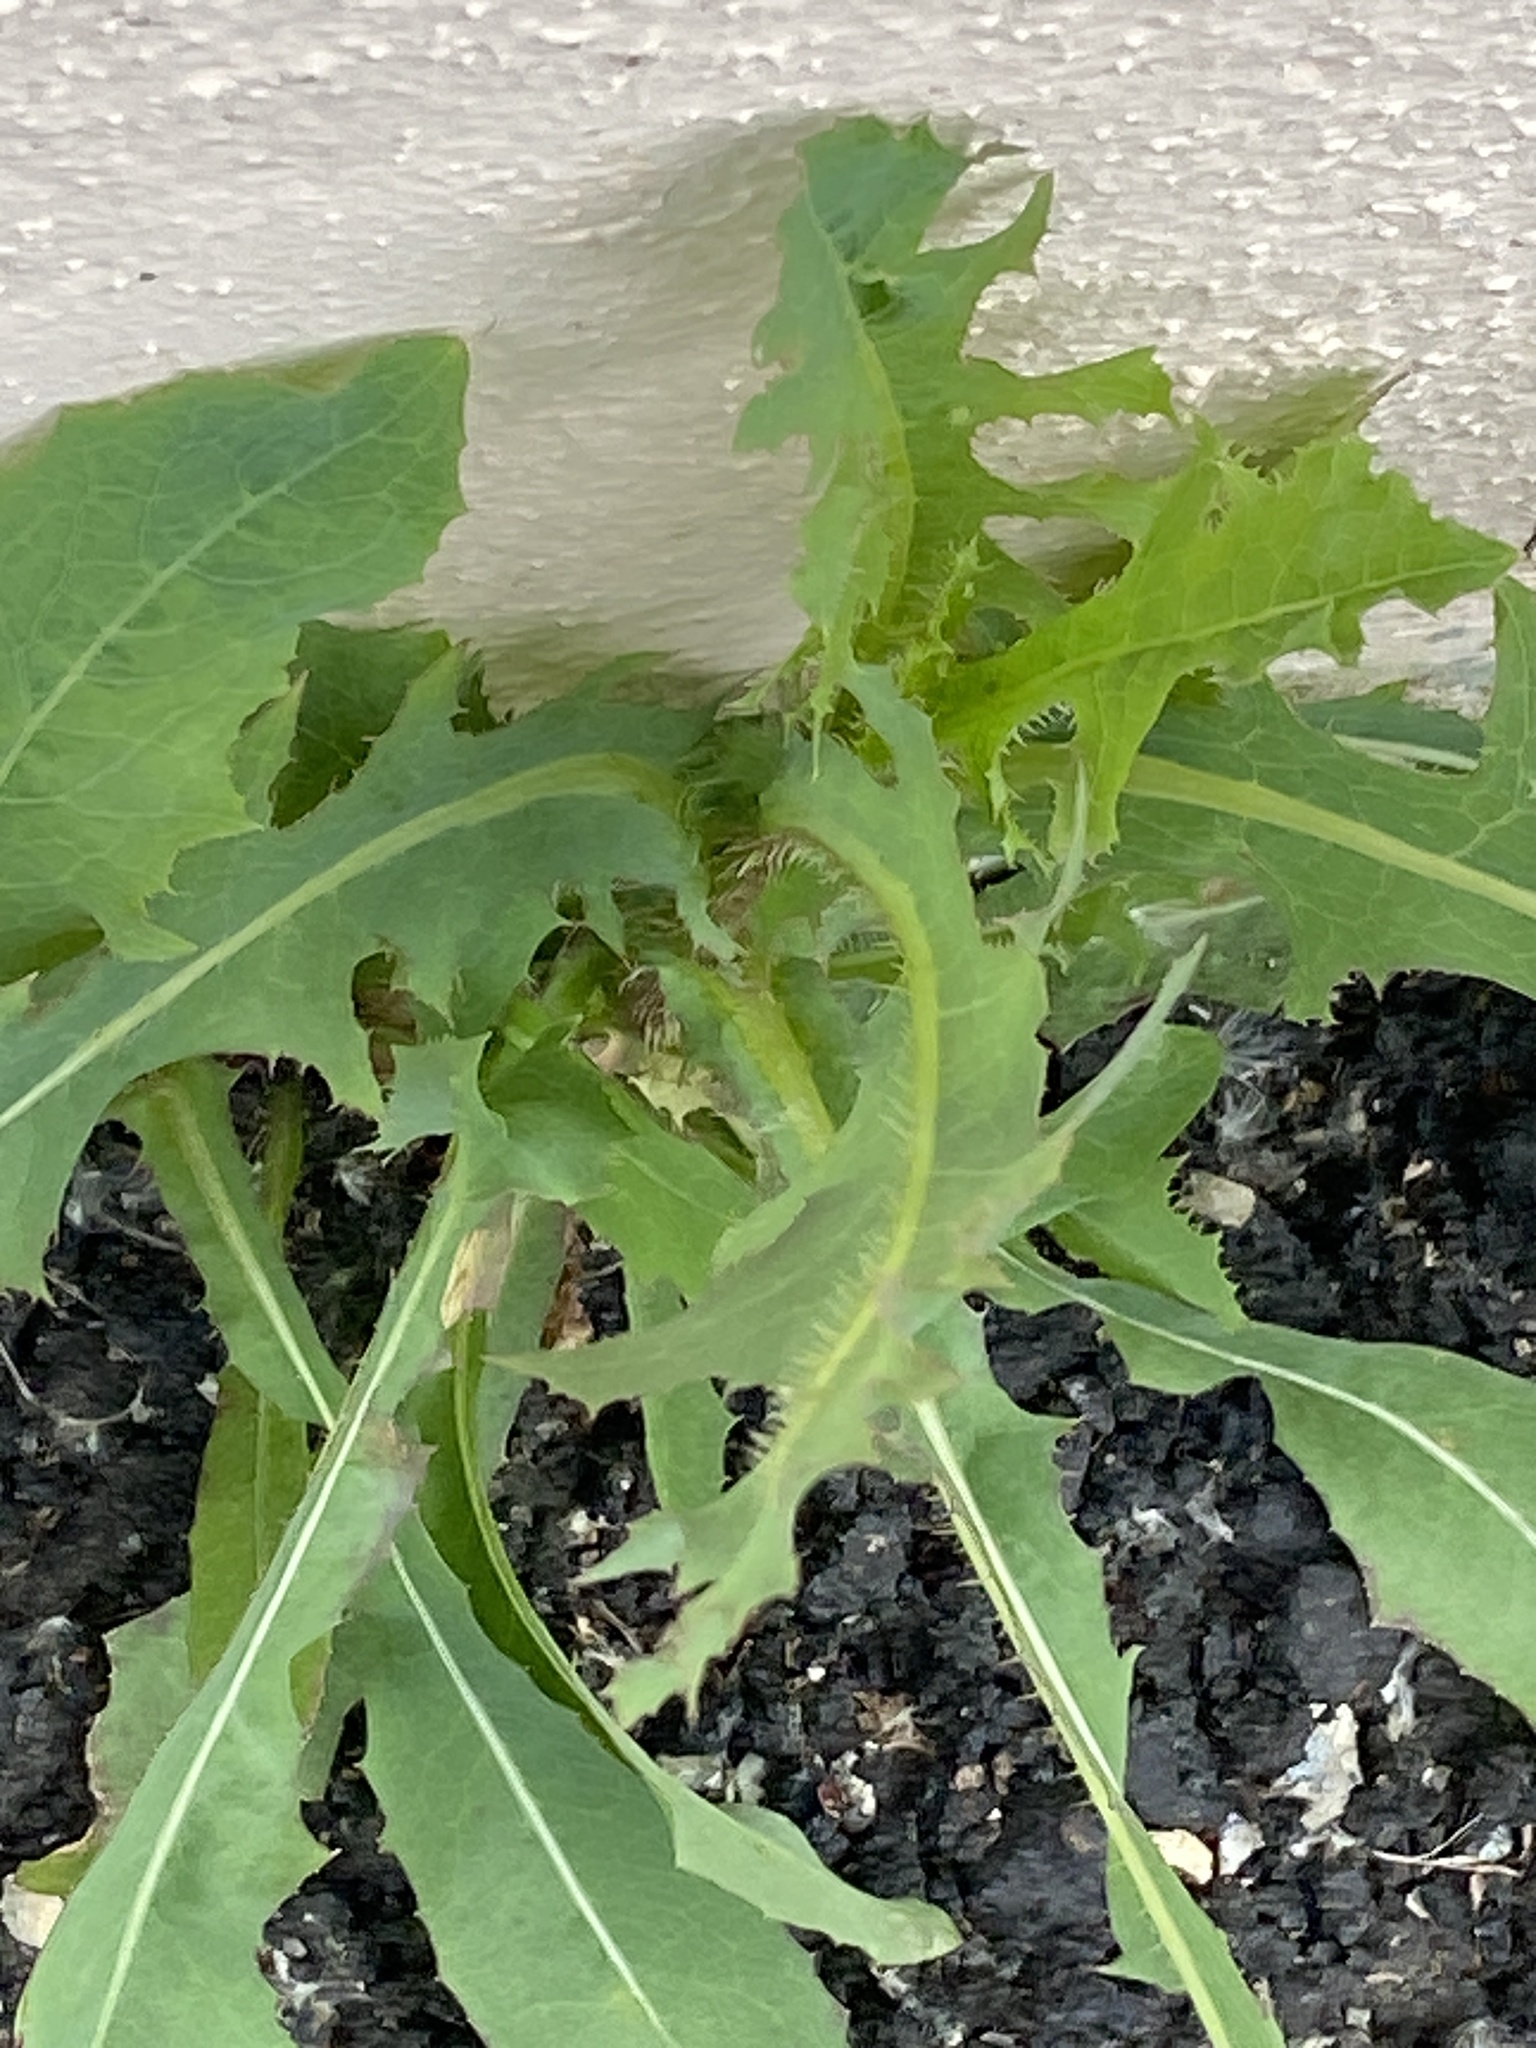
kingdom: Plantae
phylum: Tracheophyta
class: Magnoliopsida
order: Asterales
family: Asteraceae
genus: Lactuca
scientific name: Lactuca serriola
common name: Prickly lettuce
